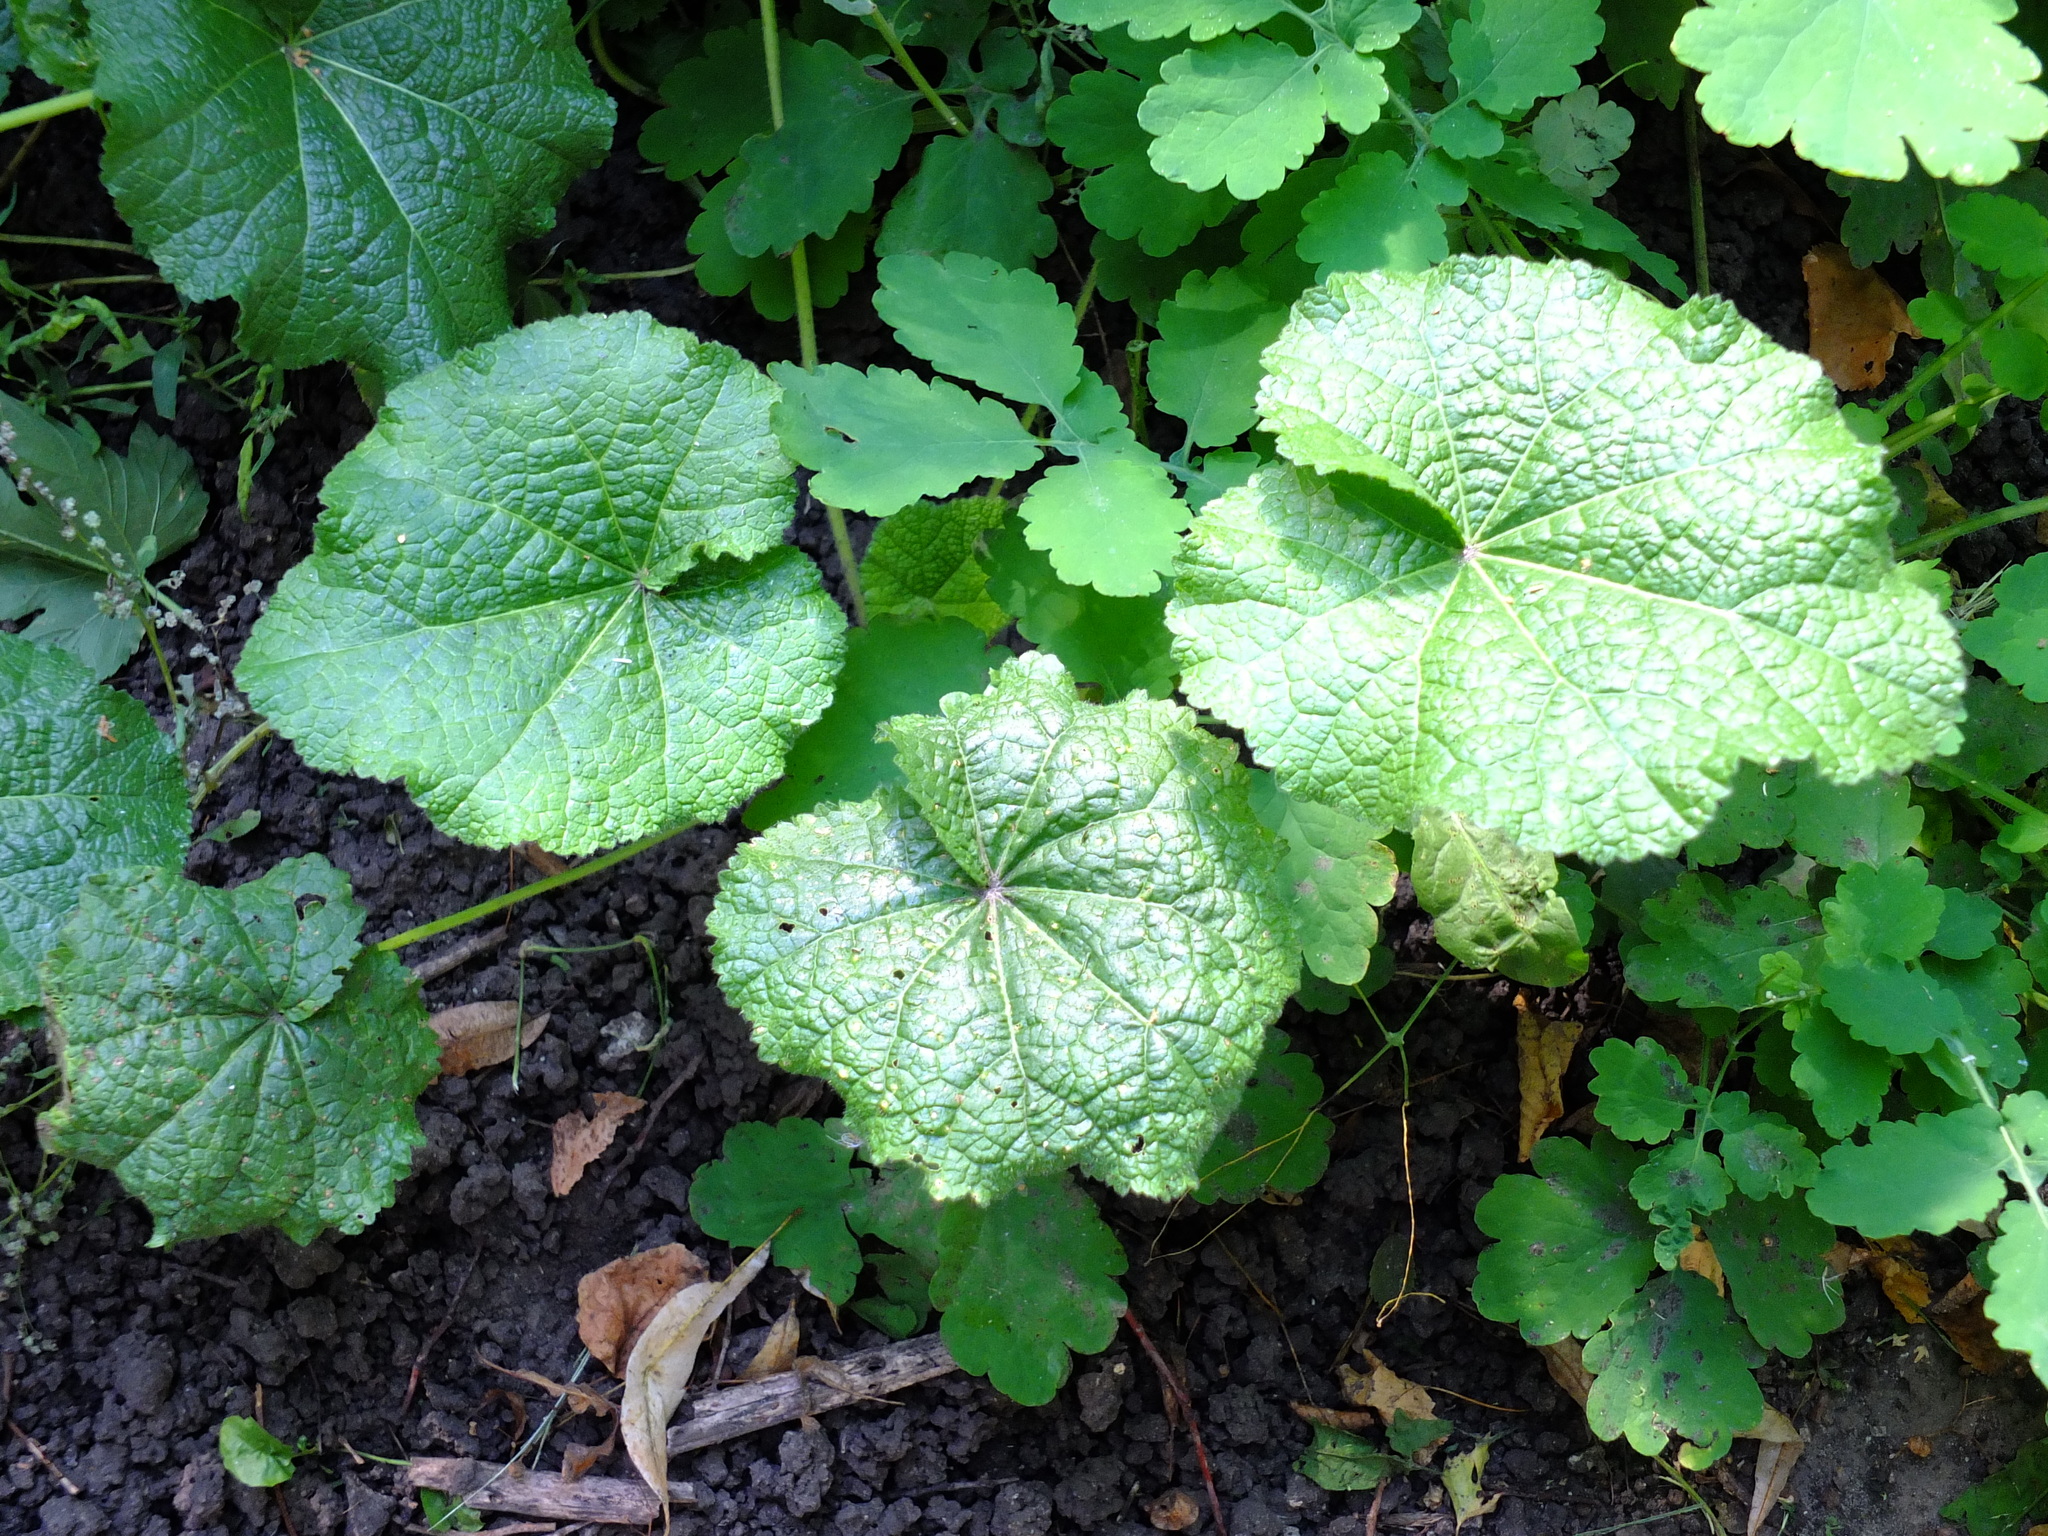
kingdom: Plantae
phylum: Tracheophyta
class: Magnoliopsida
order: Malvales
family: Malvaceae
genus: Alcea
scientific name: Alcea rosea
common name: Hollyhock
